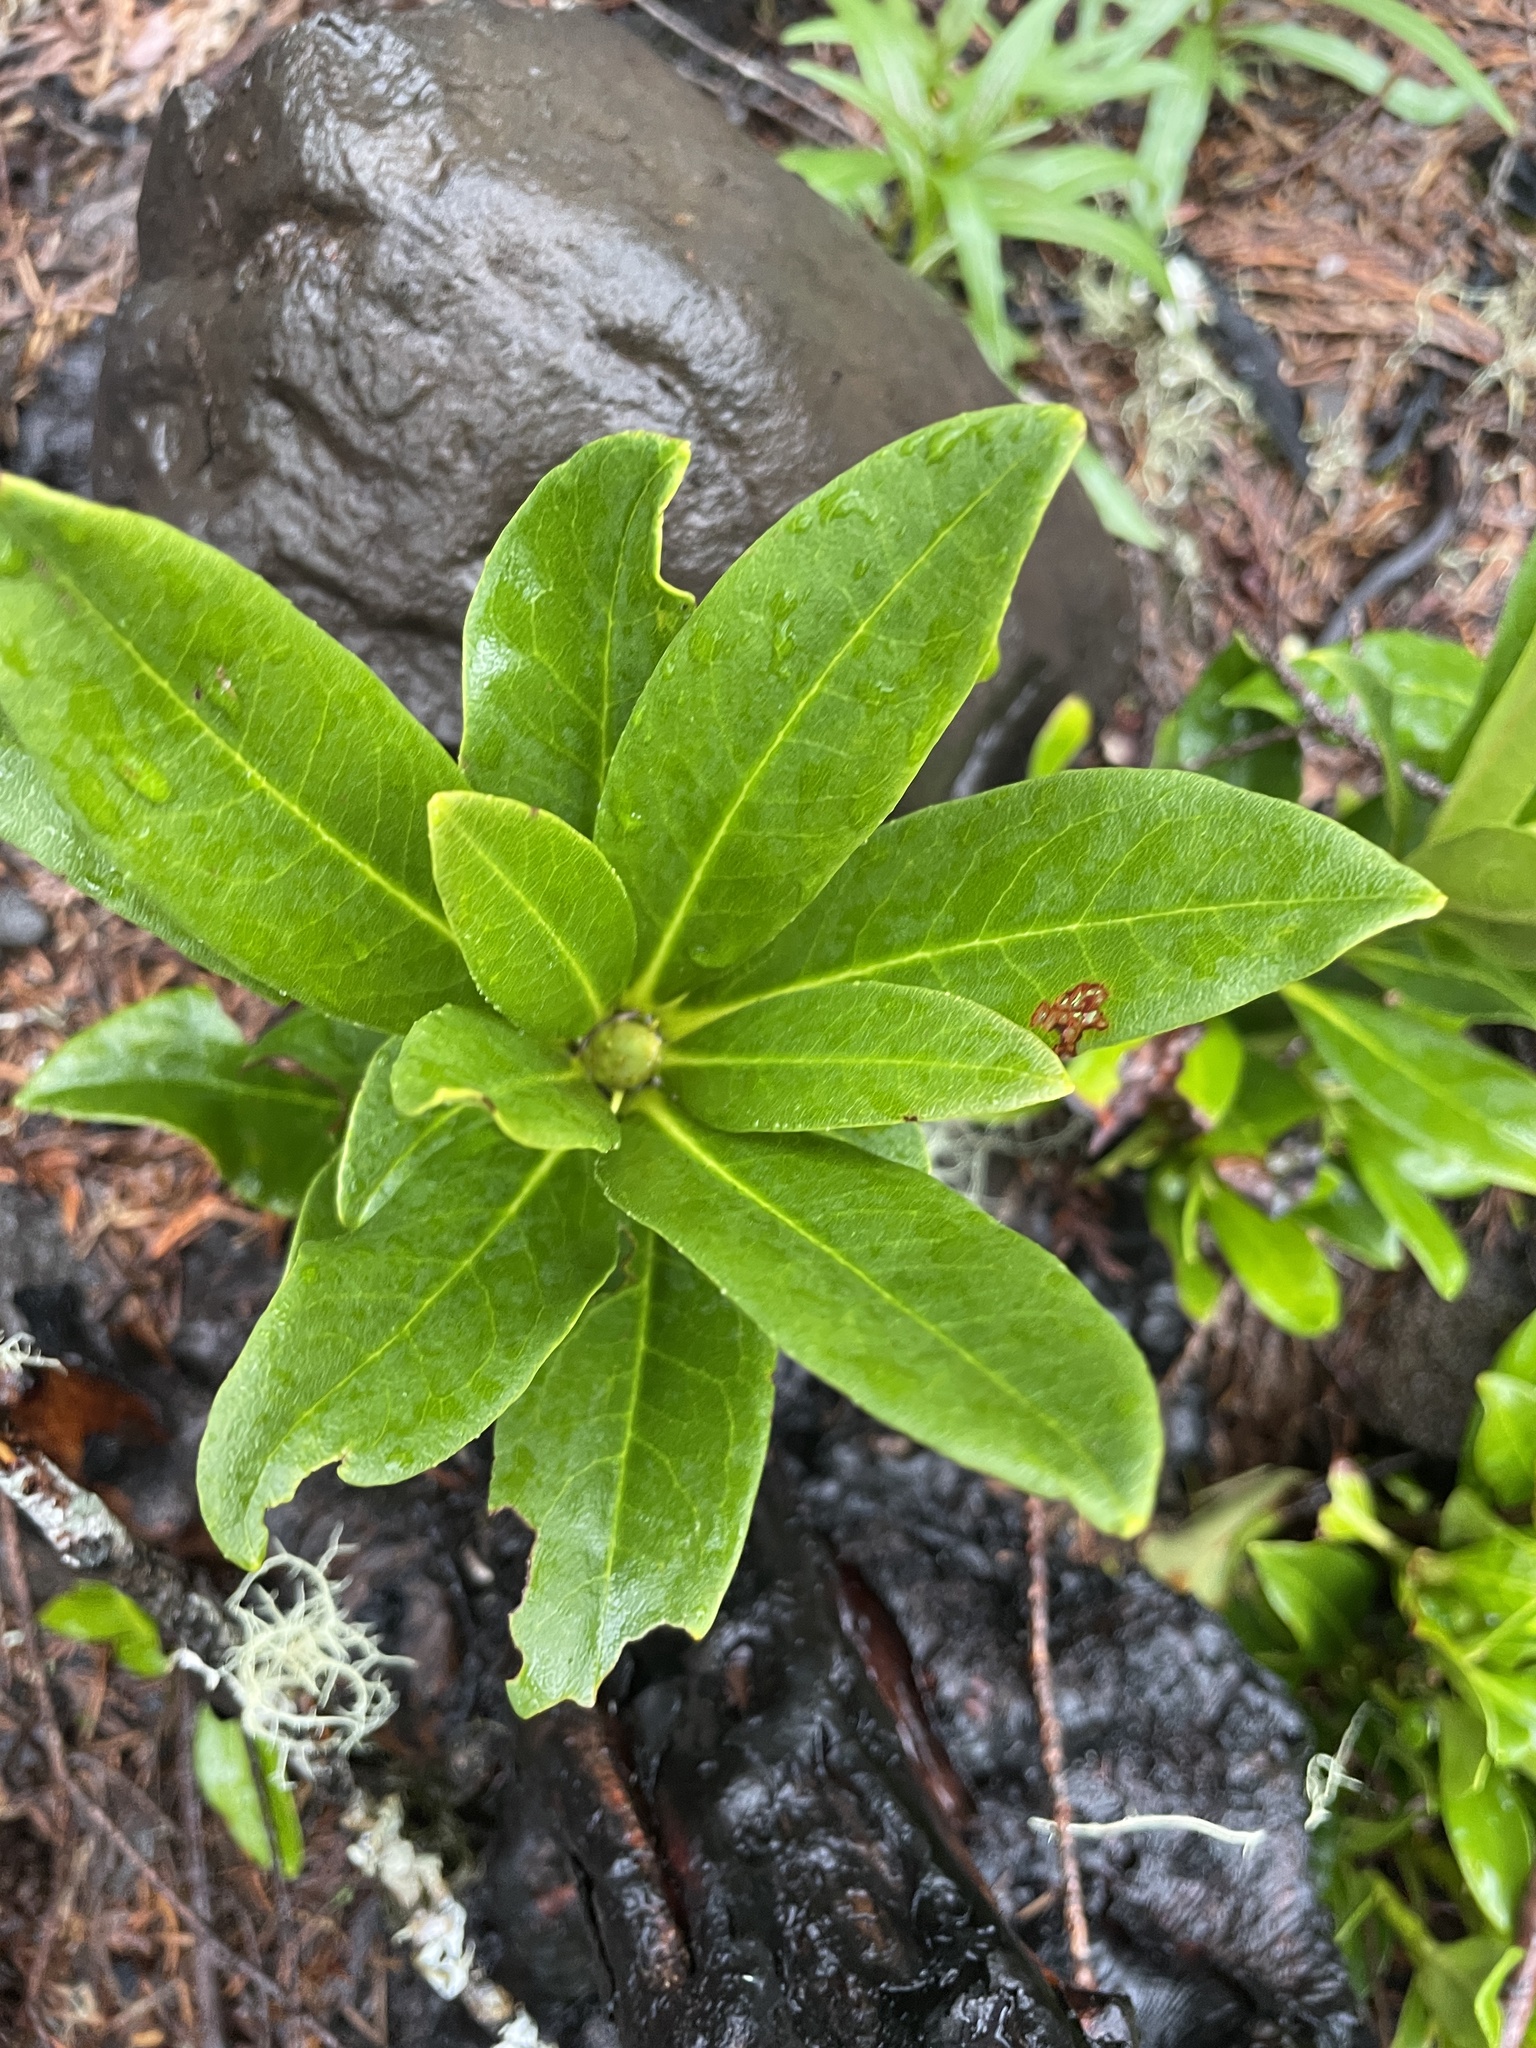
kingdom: Plantae
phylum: Tracheophyta
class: Magnoliopsida
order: Ericales
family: Ericaceae
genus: Rhododendron
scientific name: Rhododendron macrophyllum
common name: California rose bay
